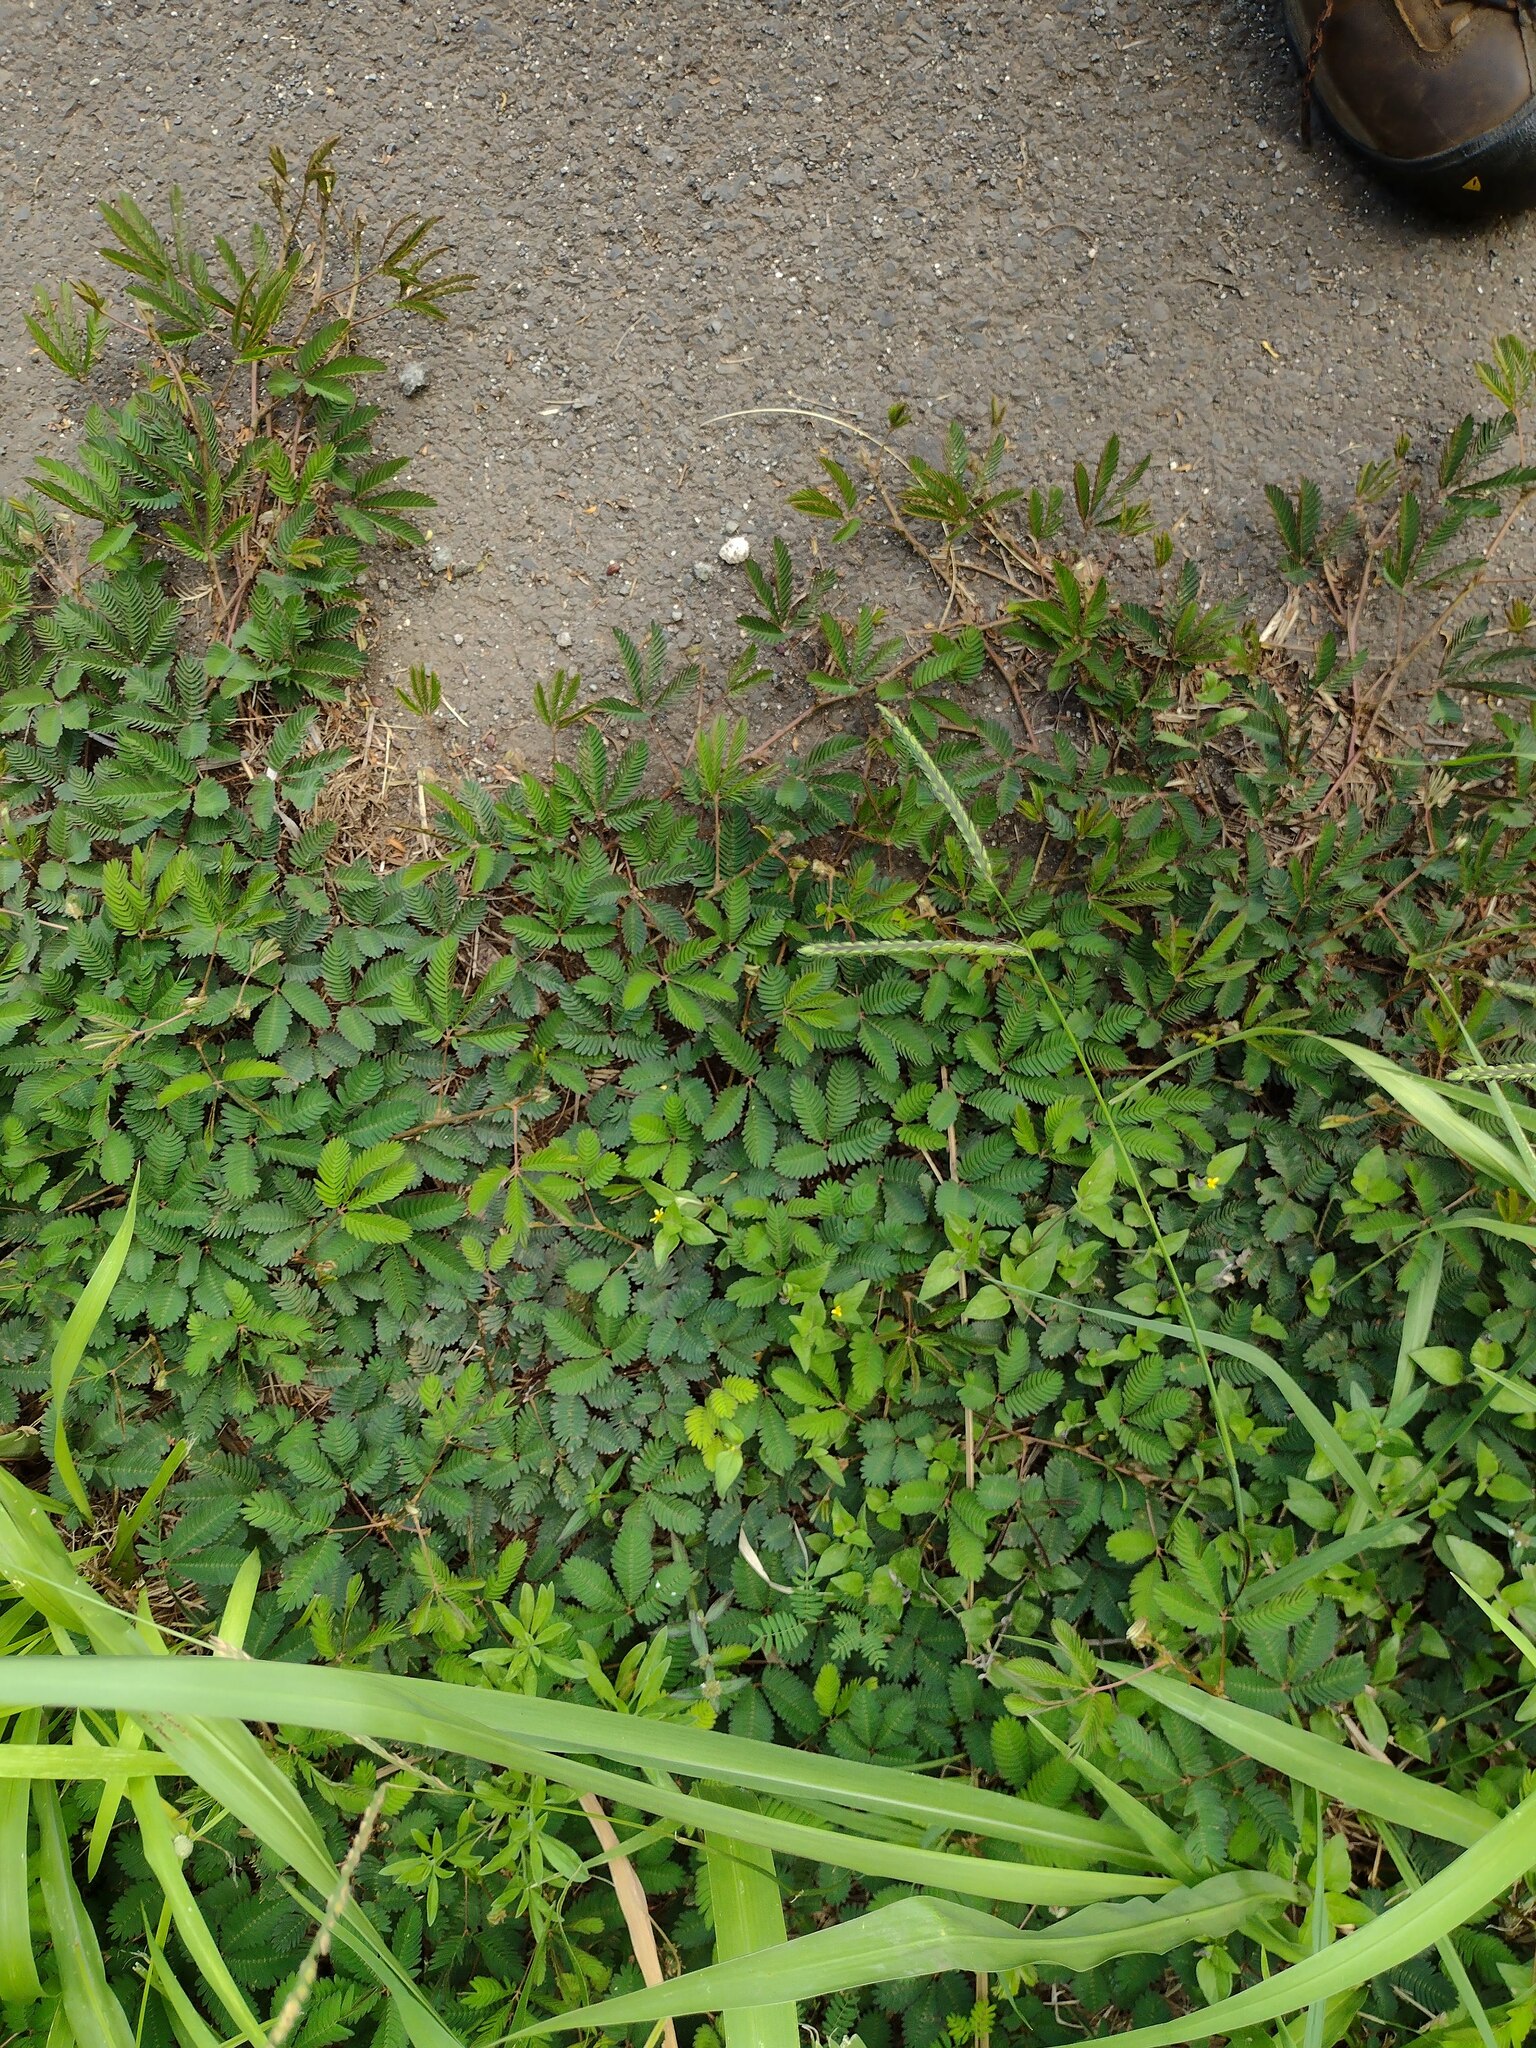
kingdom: Plantae
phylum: Tracheophyta
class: Magnoliopsida
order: Fabales
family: Fabaceae
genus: Mimosa
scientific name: Mimosa pudica
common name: Sensitive plant
